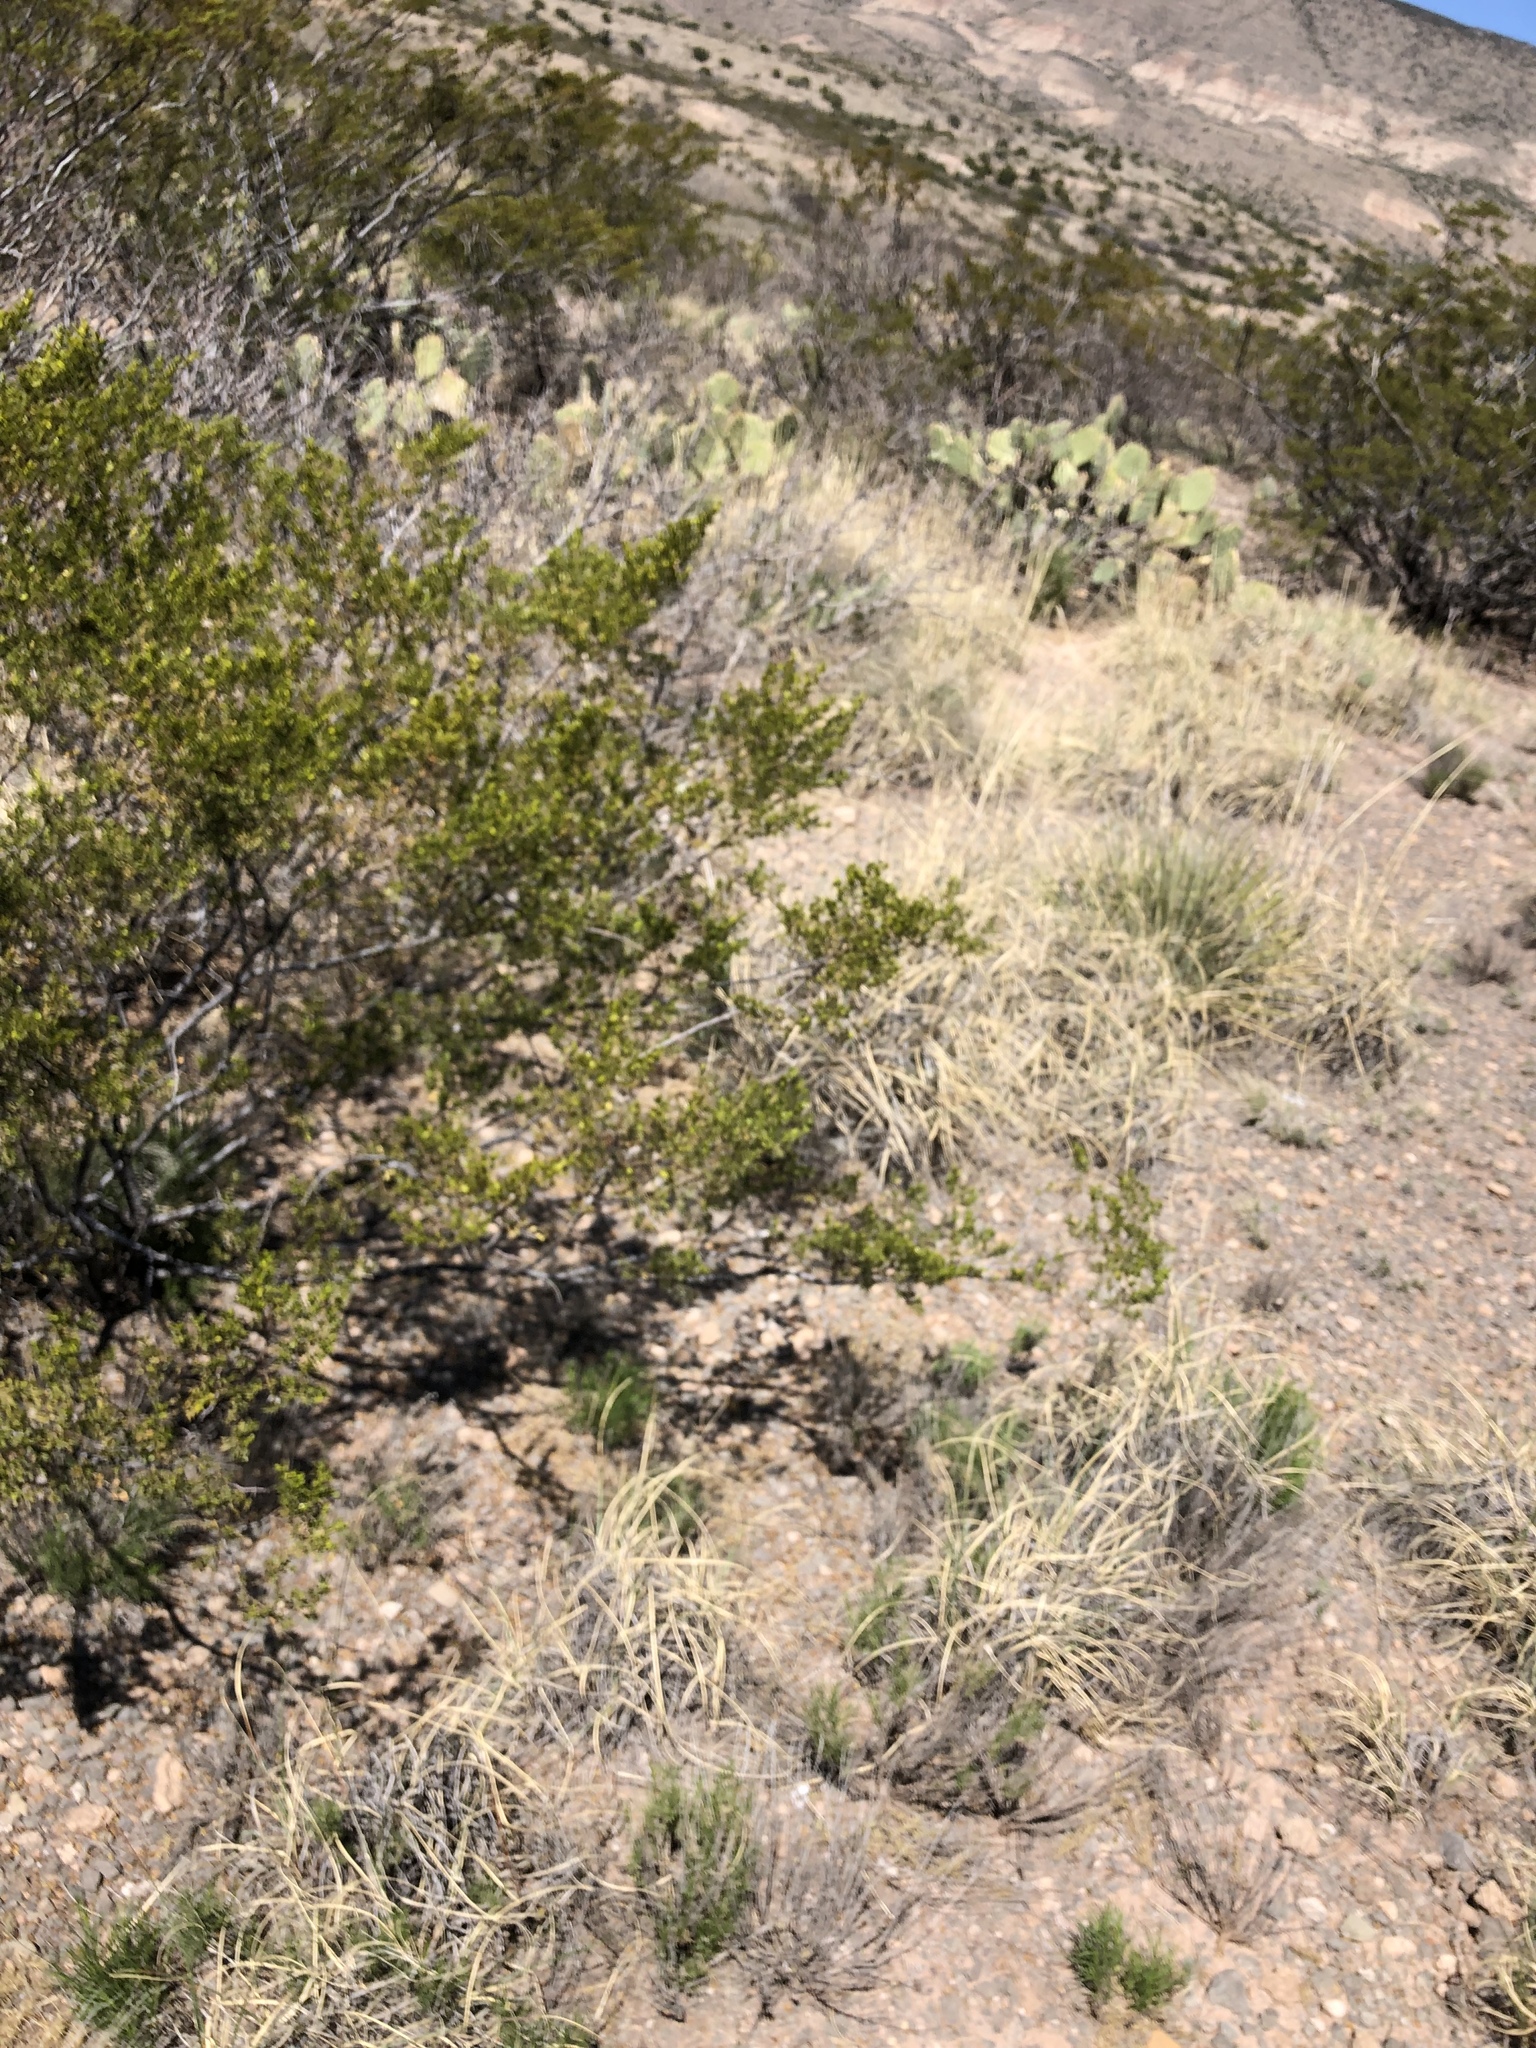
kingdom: Plantae
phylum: Tracheophyta
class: Magnoliopsida
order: Zygophyllales
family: Zygophyllaceae
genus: Larrea
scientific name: Larrea tridentata
